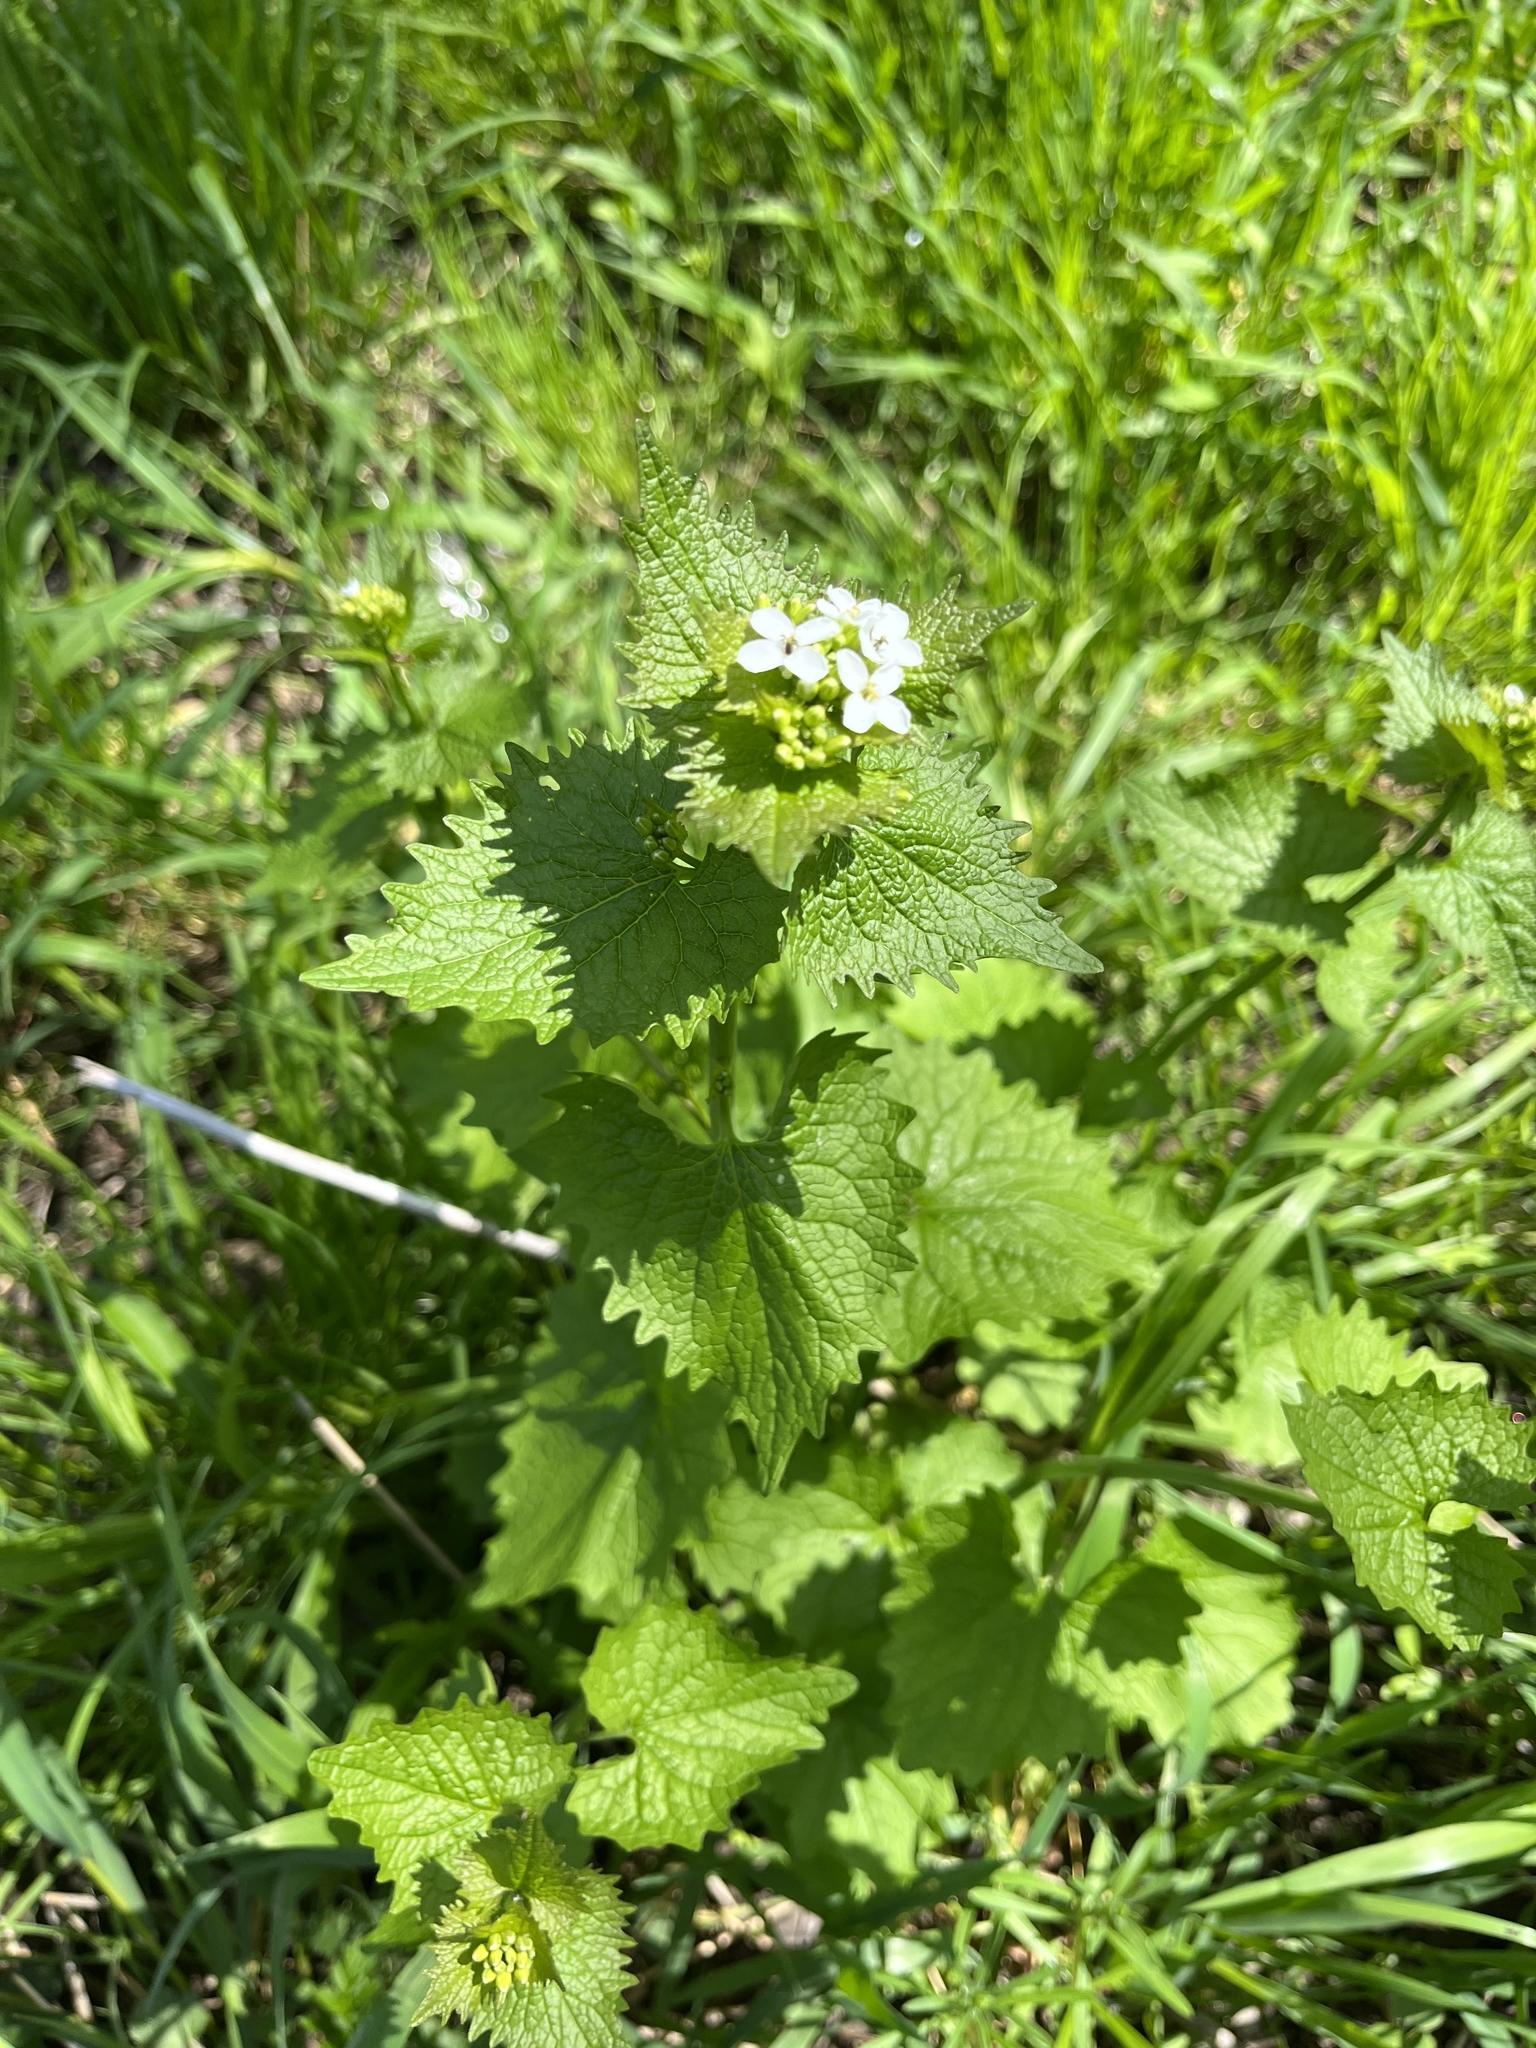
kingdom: Plantae
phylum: Tracheophyta
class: Magnoliopsida
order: Brassicales
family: Brassicaceae
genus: Alliaria
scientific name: Alliaria petiolata
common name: Garlic mustard
